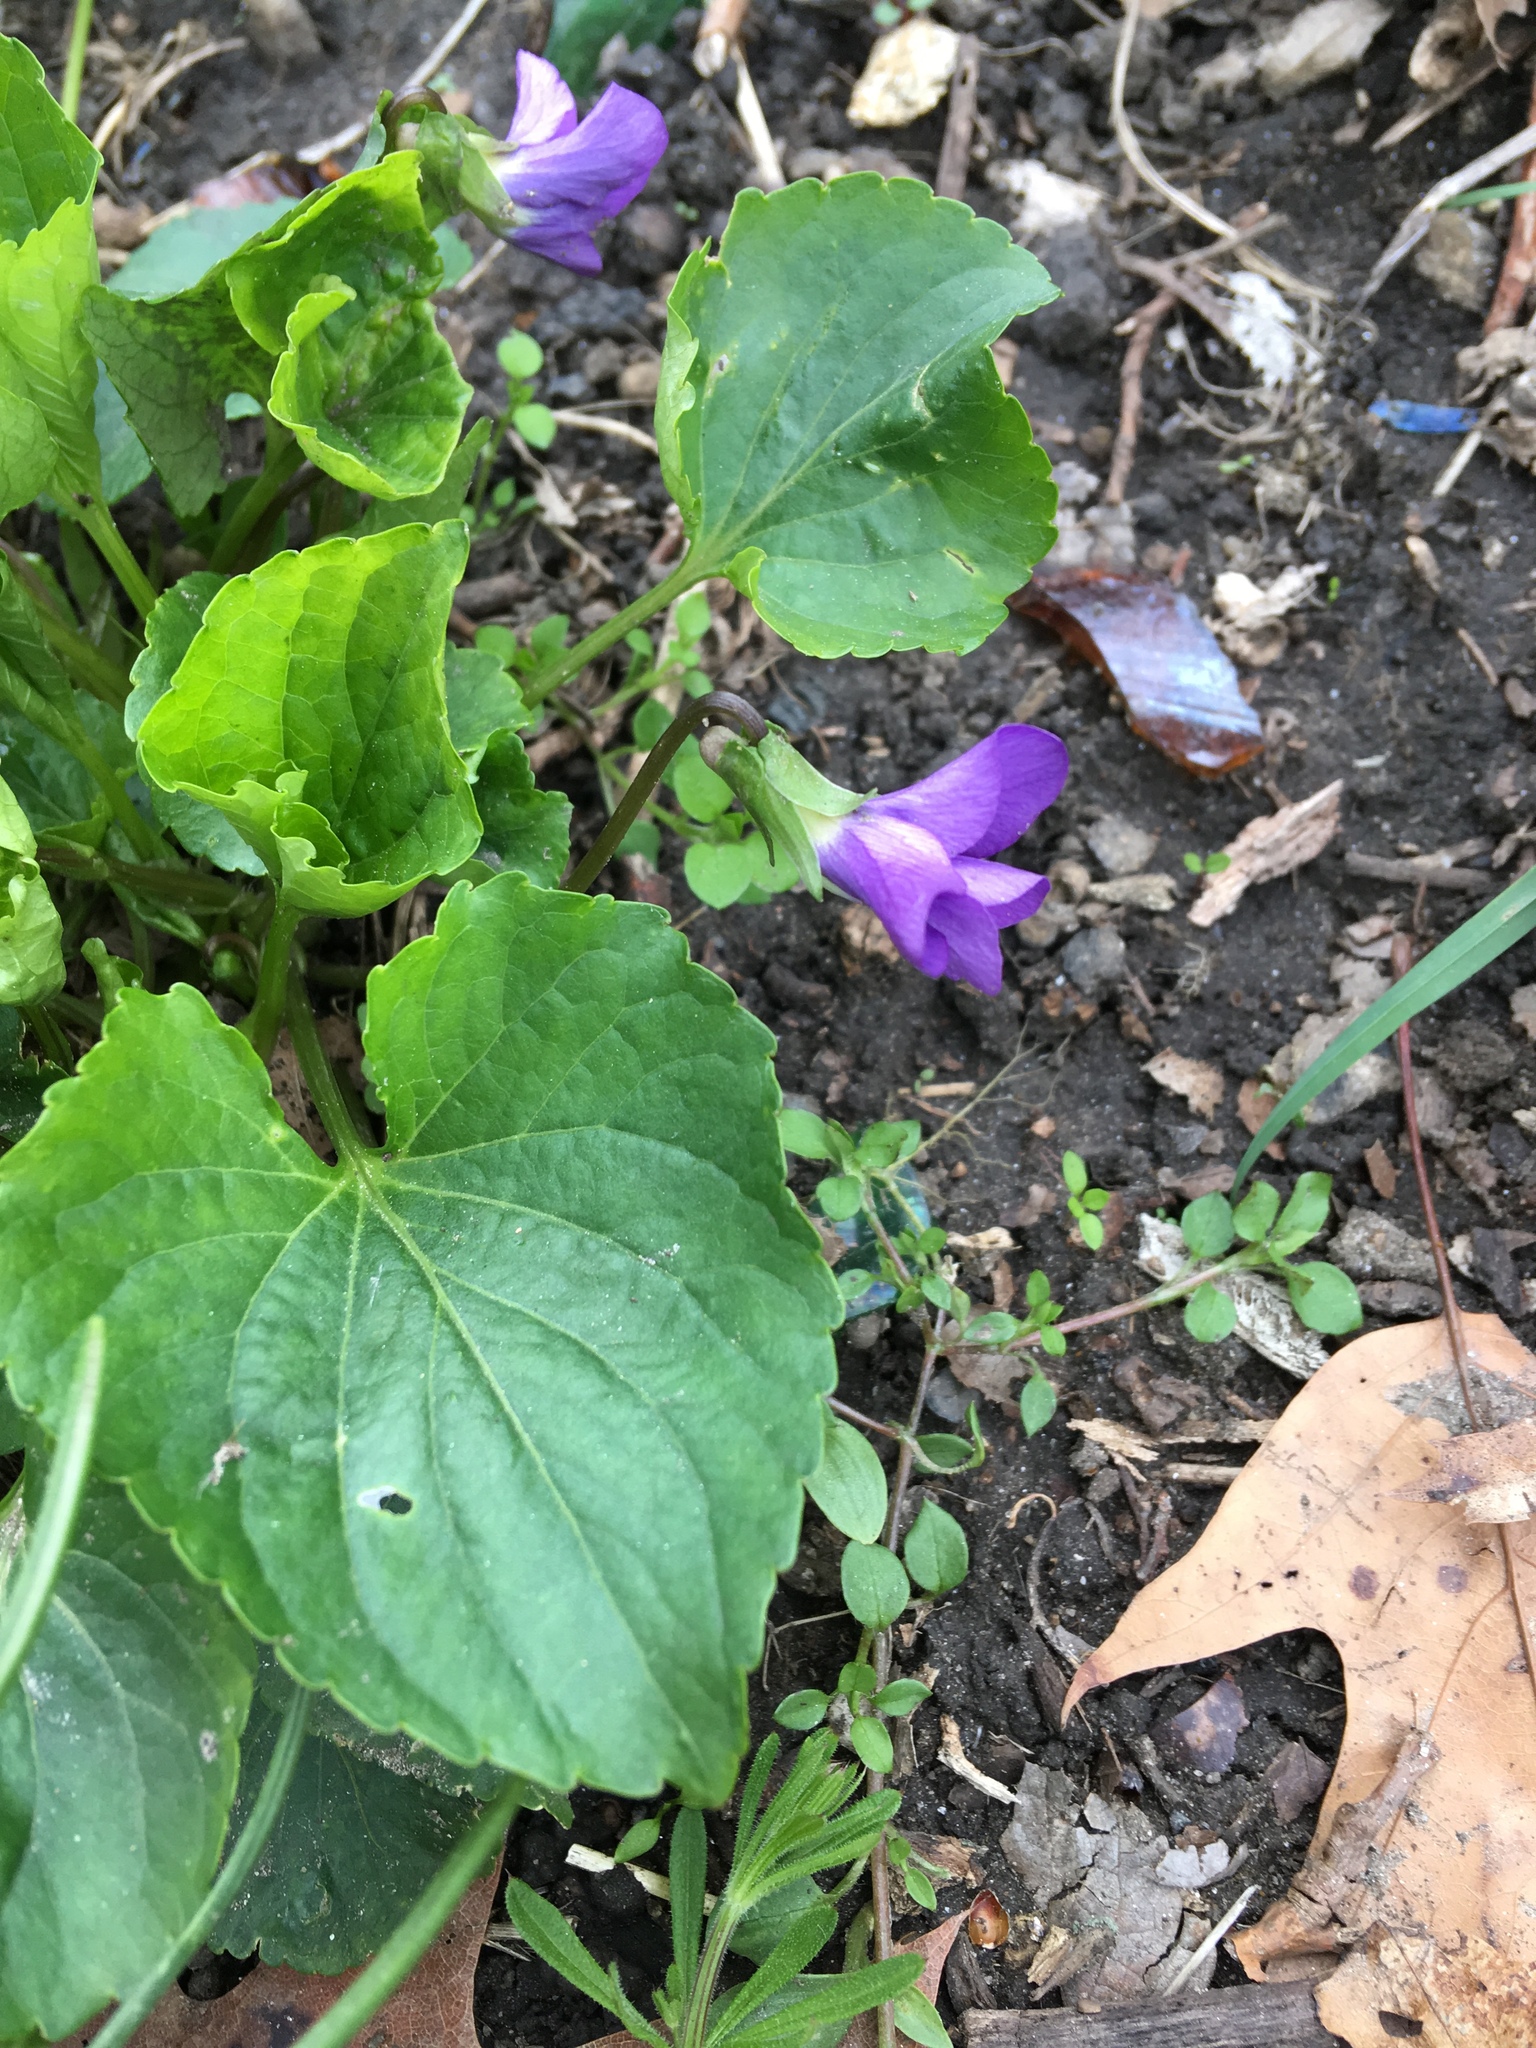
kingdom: Plantae
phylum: Tracheophyta
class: Magnoliopsida
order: Malpighiales
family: Violaceae
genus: Viola
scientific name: Viola sororia
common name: Dooryard violet
